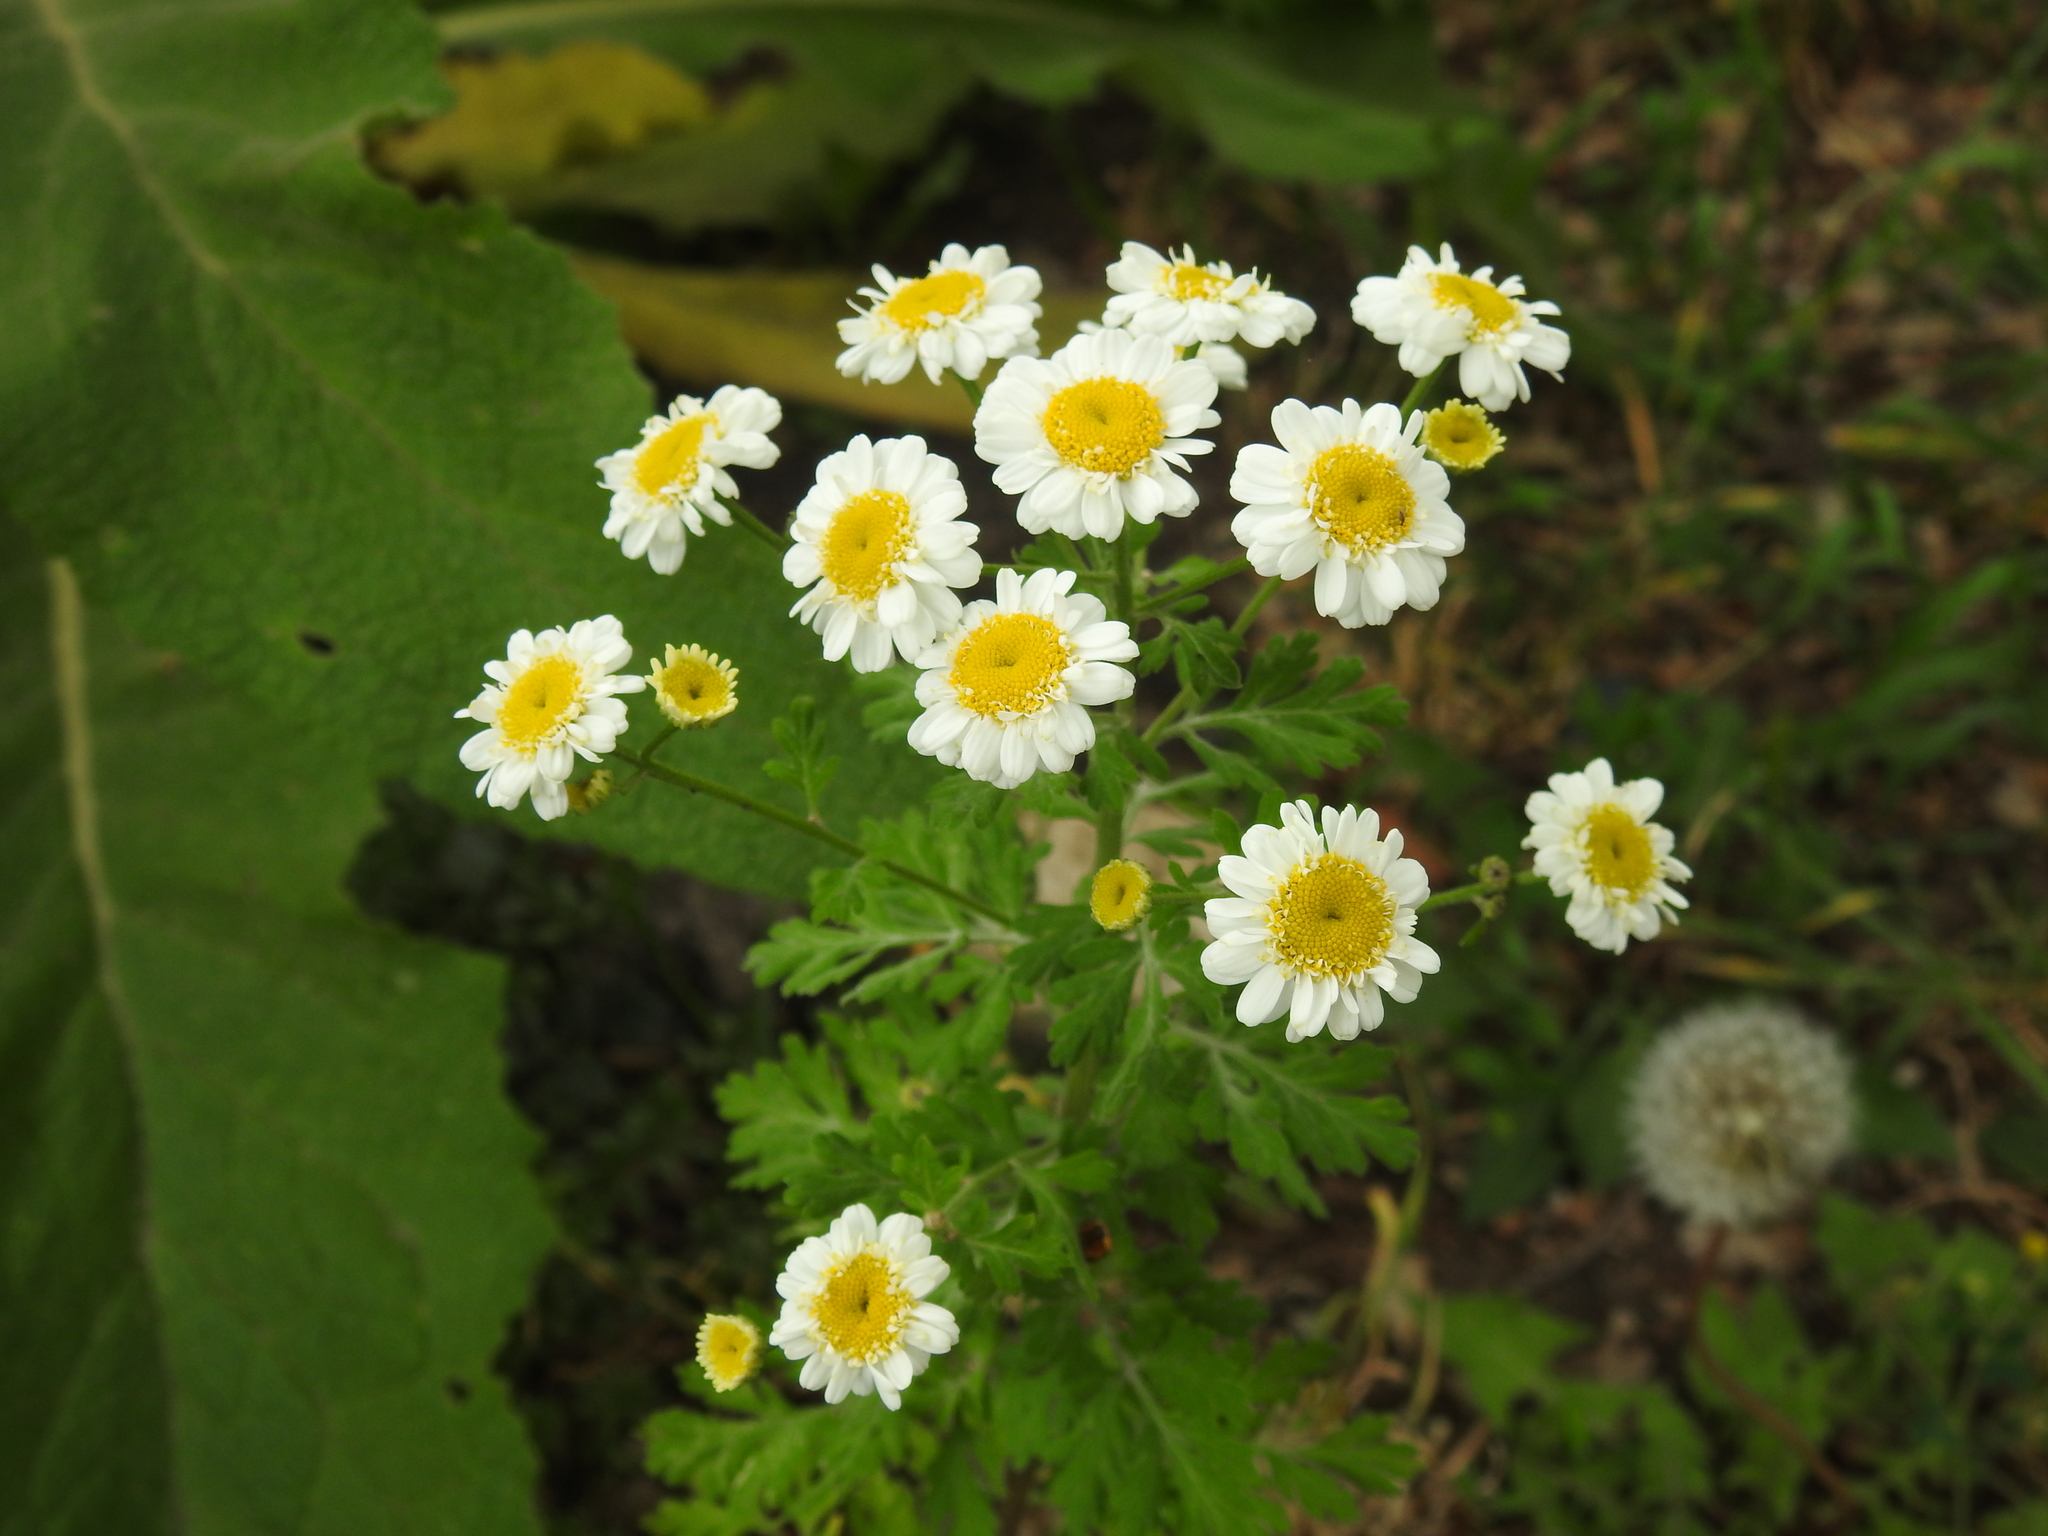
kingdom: Plantae
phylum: Tracheophyta
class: Magnoliopsida
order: Asterales
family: Asteraceae
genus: Tanacetum
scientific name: Tanacetum parthenium
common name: Feverfew
